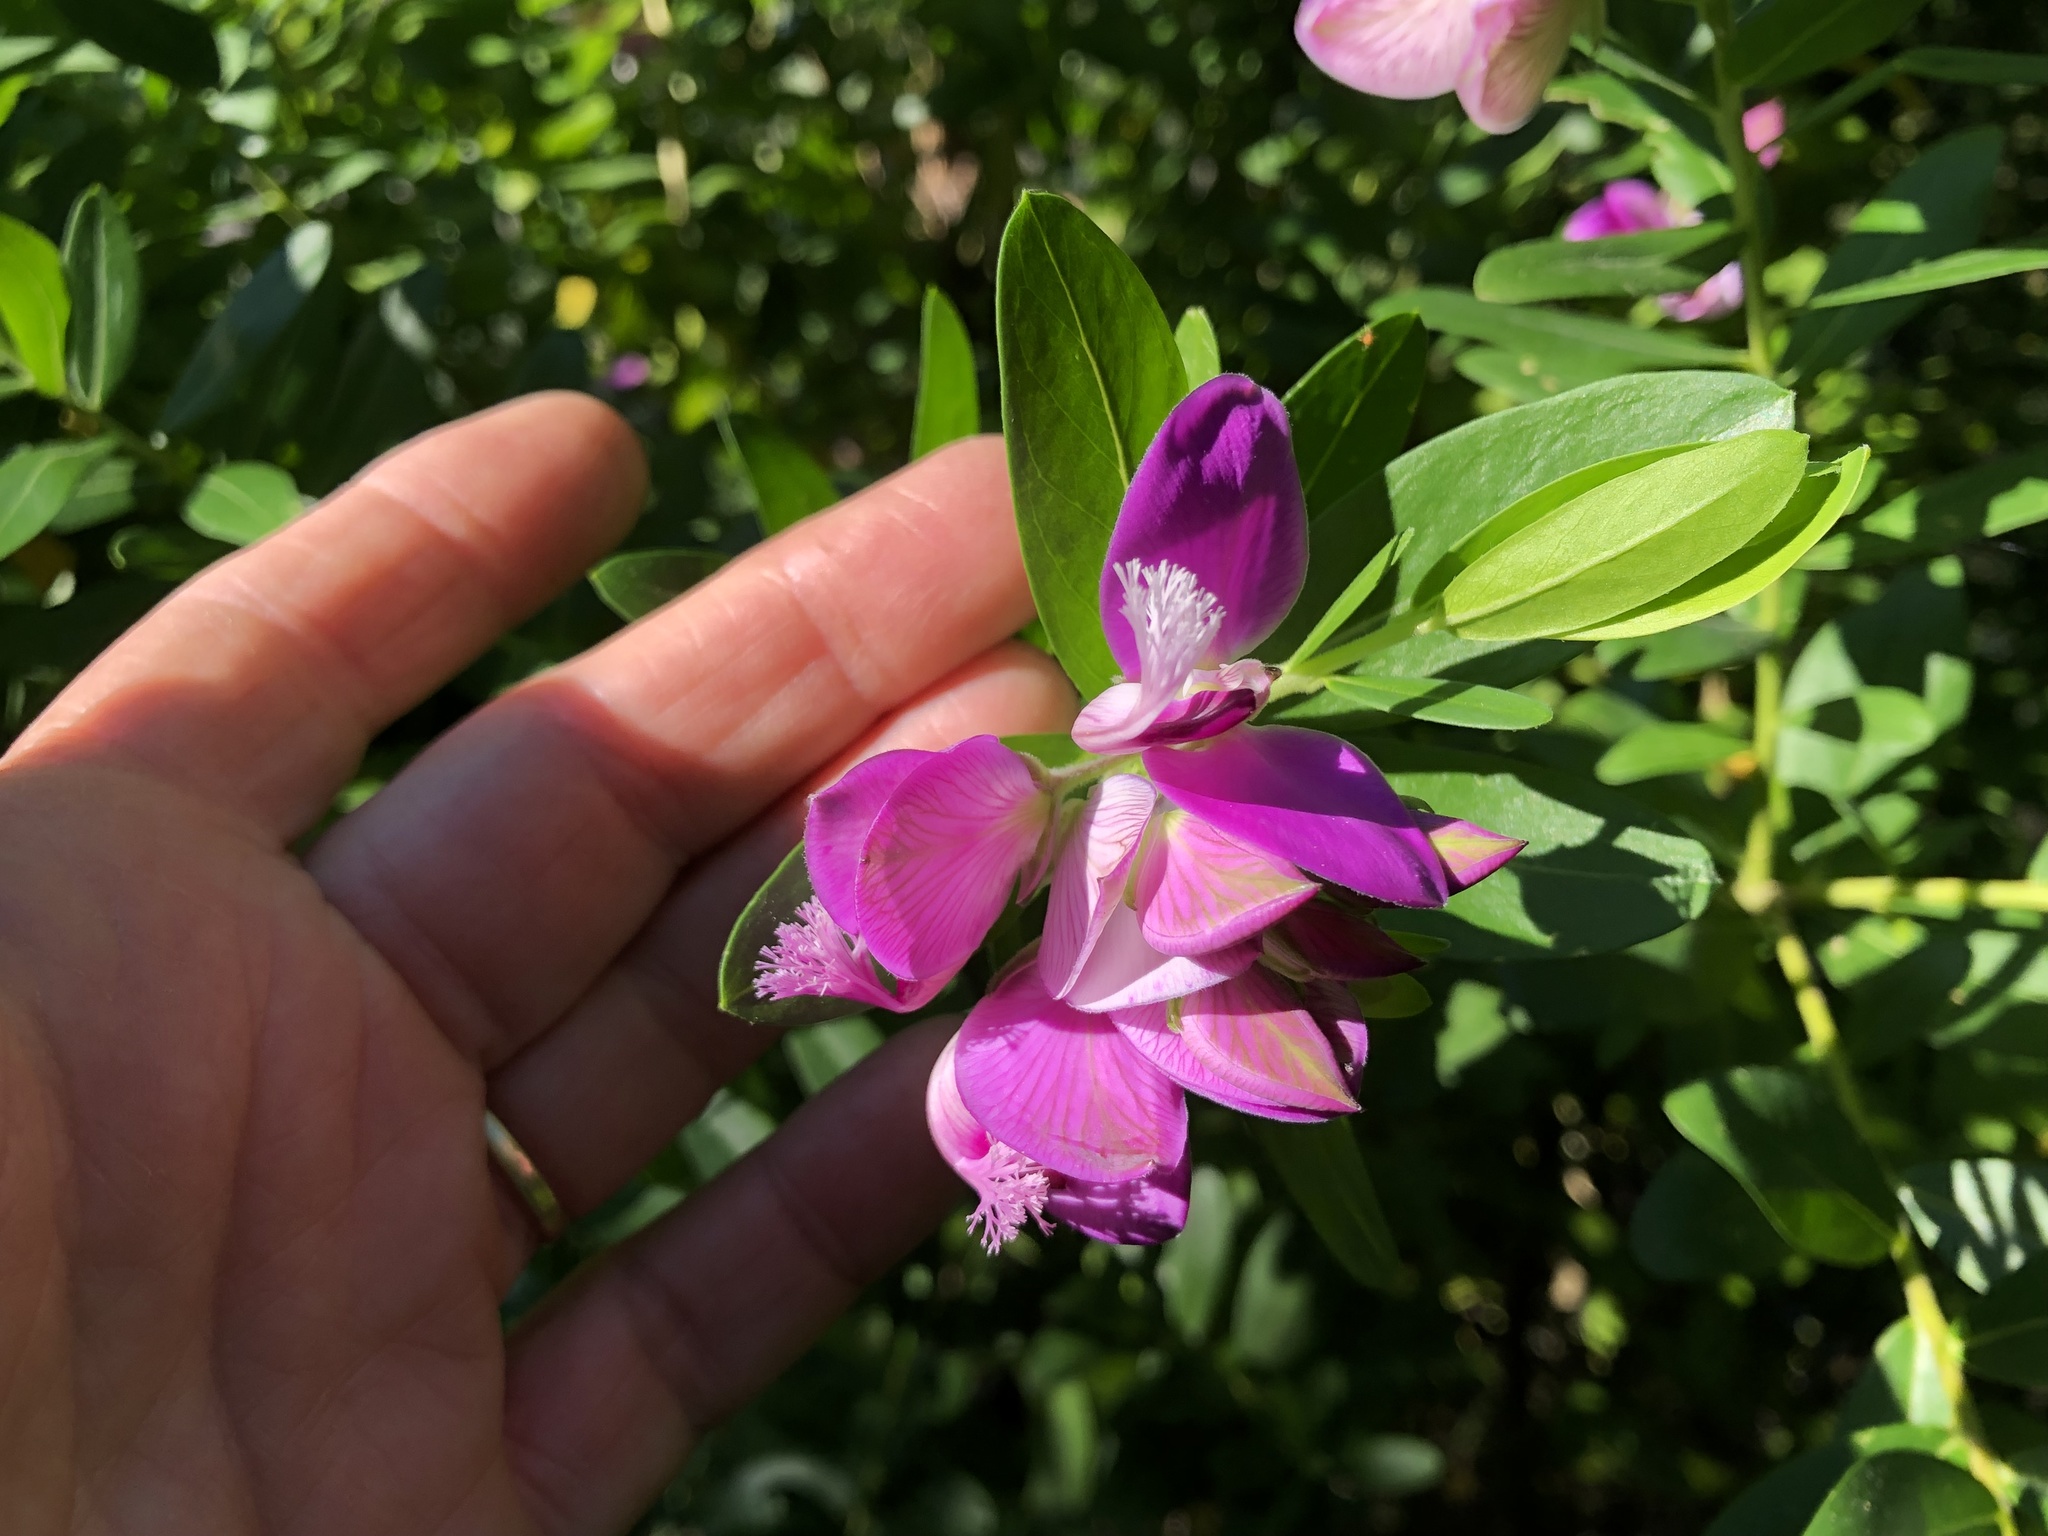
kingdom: Plantae
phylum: Tracheophyta
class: Magnoliopsida
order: Fabales
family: Polygalaceae
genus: Polygala
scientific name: Polygala myrtifolia
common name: Myrtle-leaf milkwort
